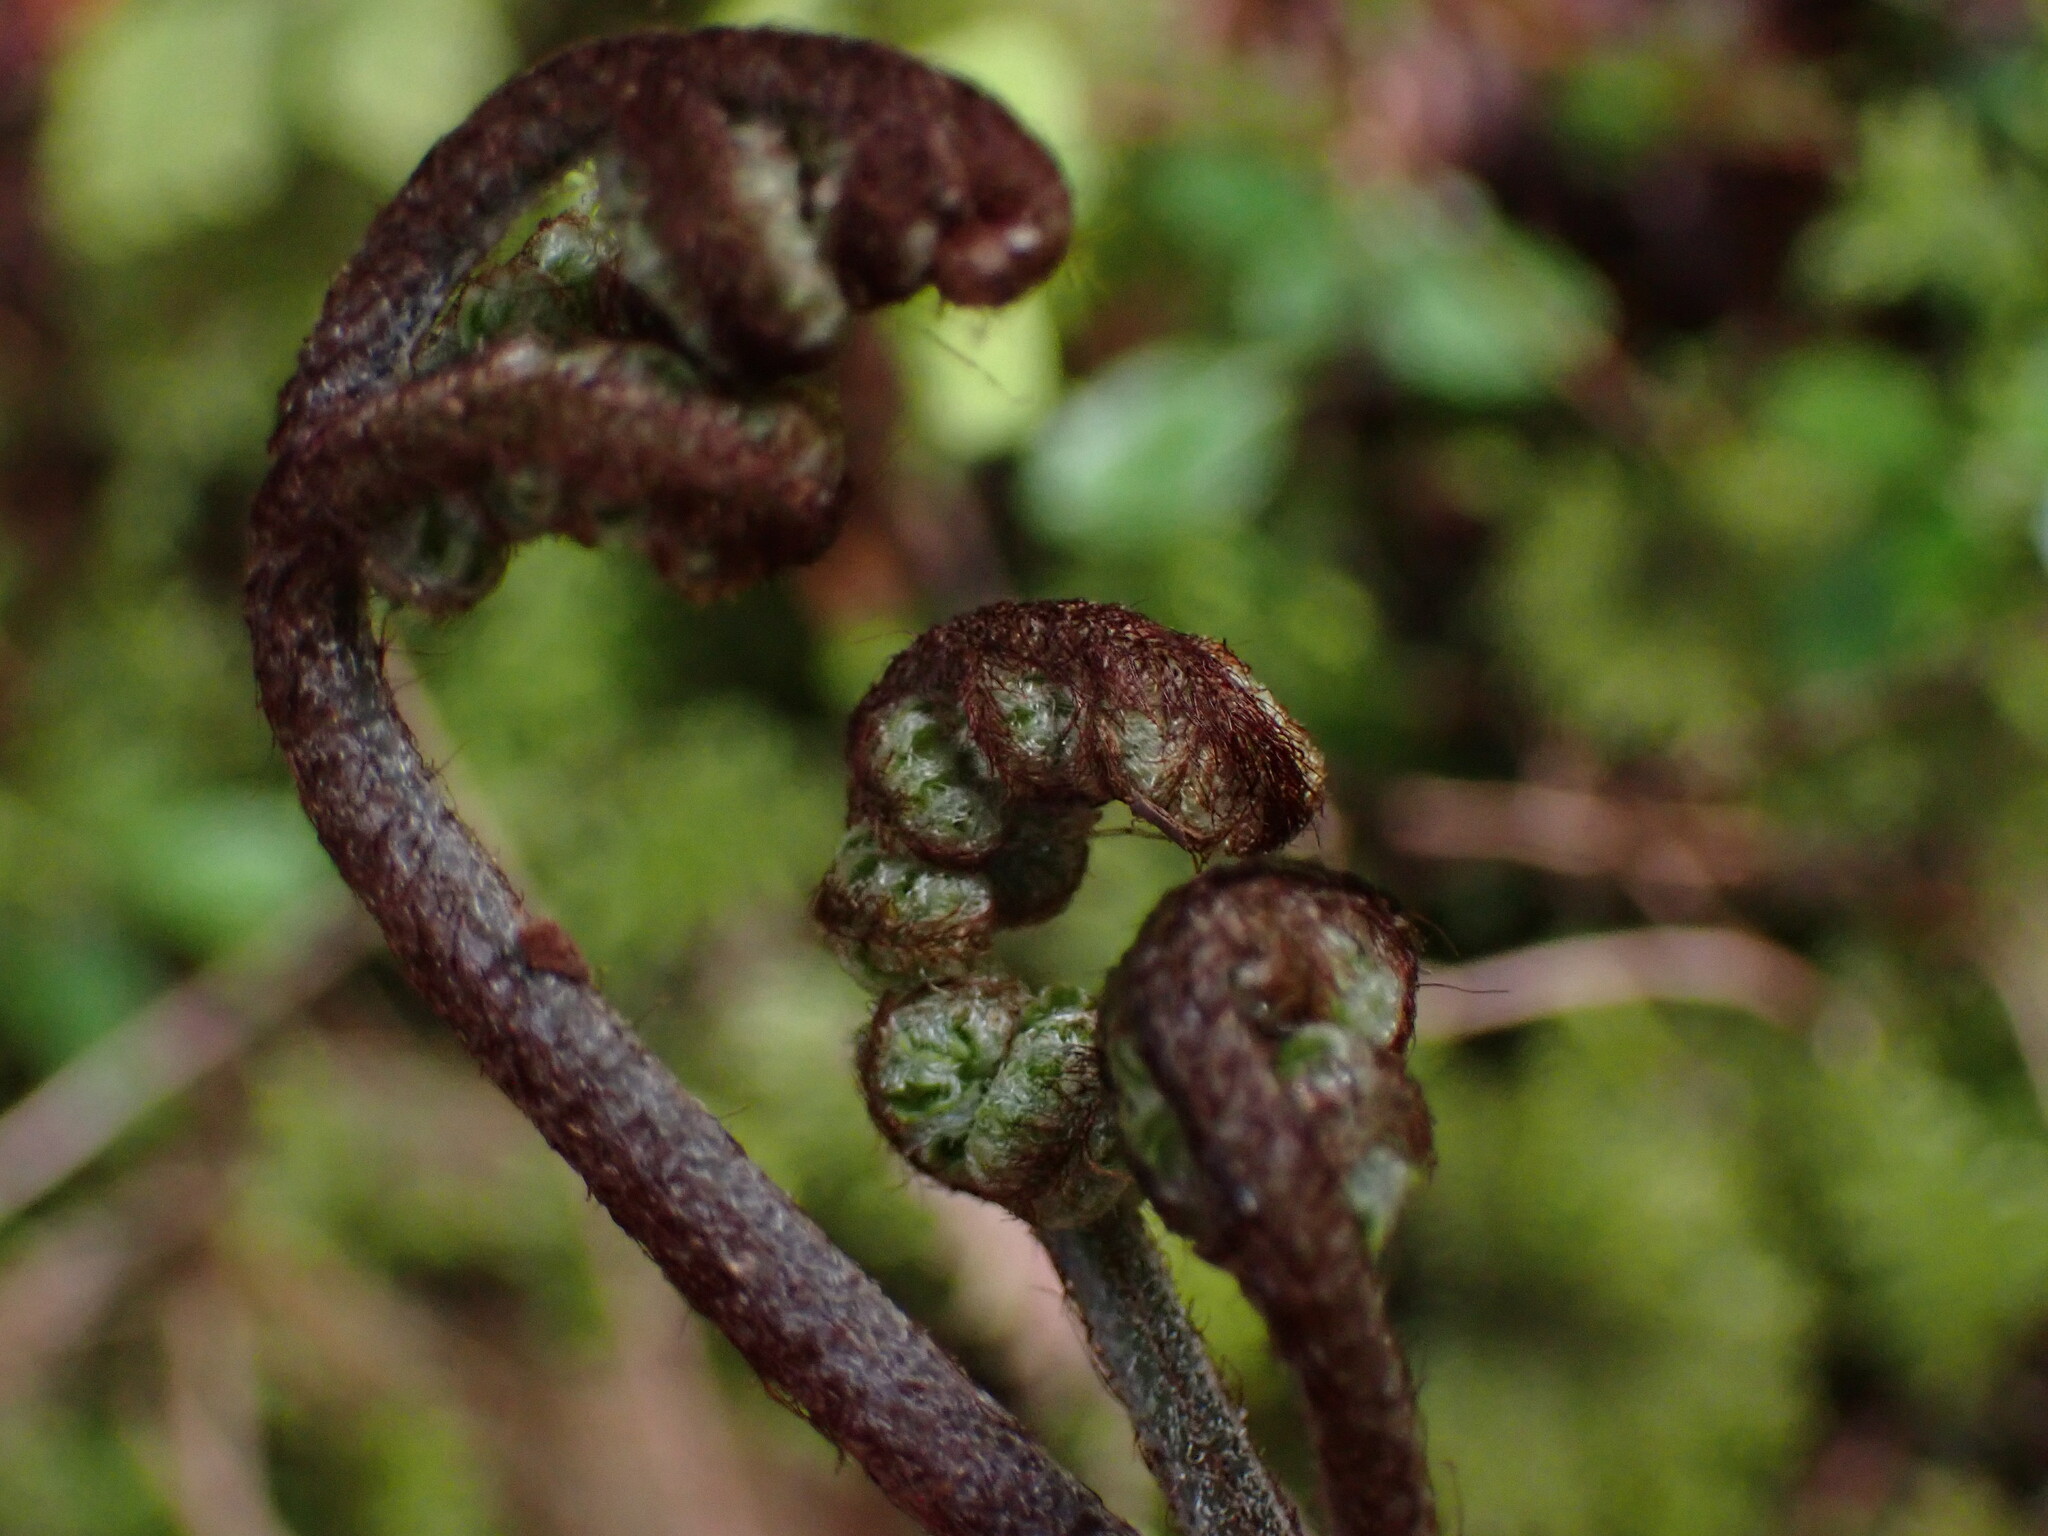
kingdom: Plantae
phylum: Tracheophyta
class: Polypodiopsida
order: Polypodiales
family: Dennstaedtiaceae
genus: Pteridium
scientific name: Pteridium aquilinum
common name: Bracken
